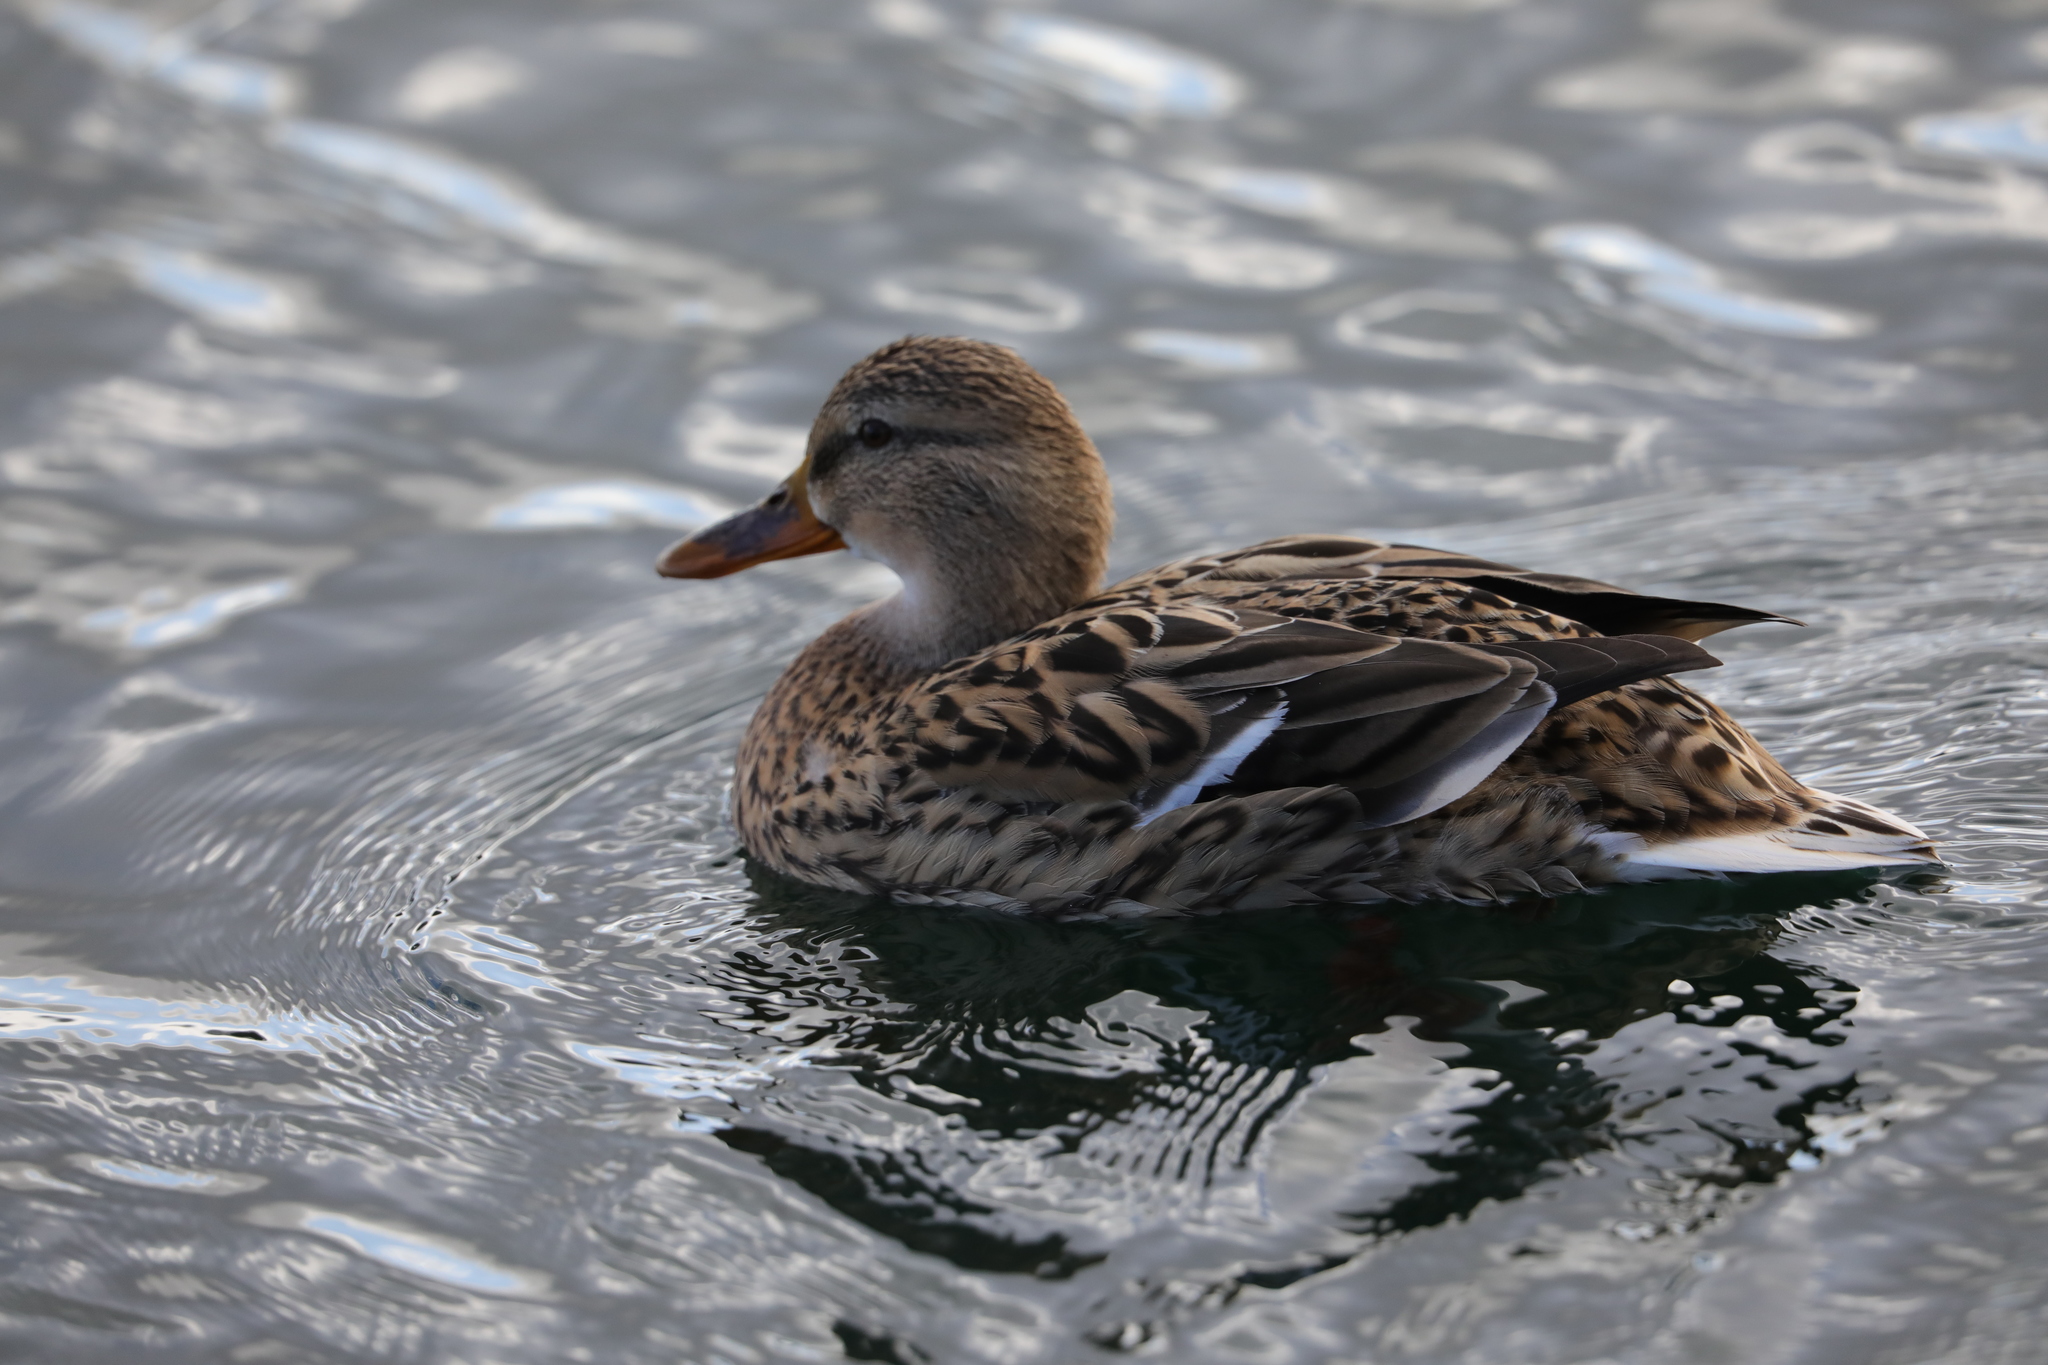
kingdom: Animalia
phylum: Chordata
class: Aves
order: Anseriformes
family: Anatidae
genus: Anas
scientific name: Anas platyrhynchos
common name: Mallard
